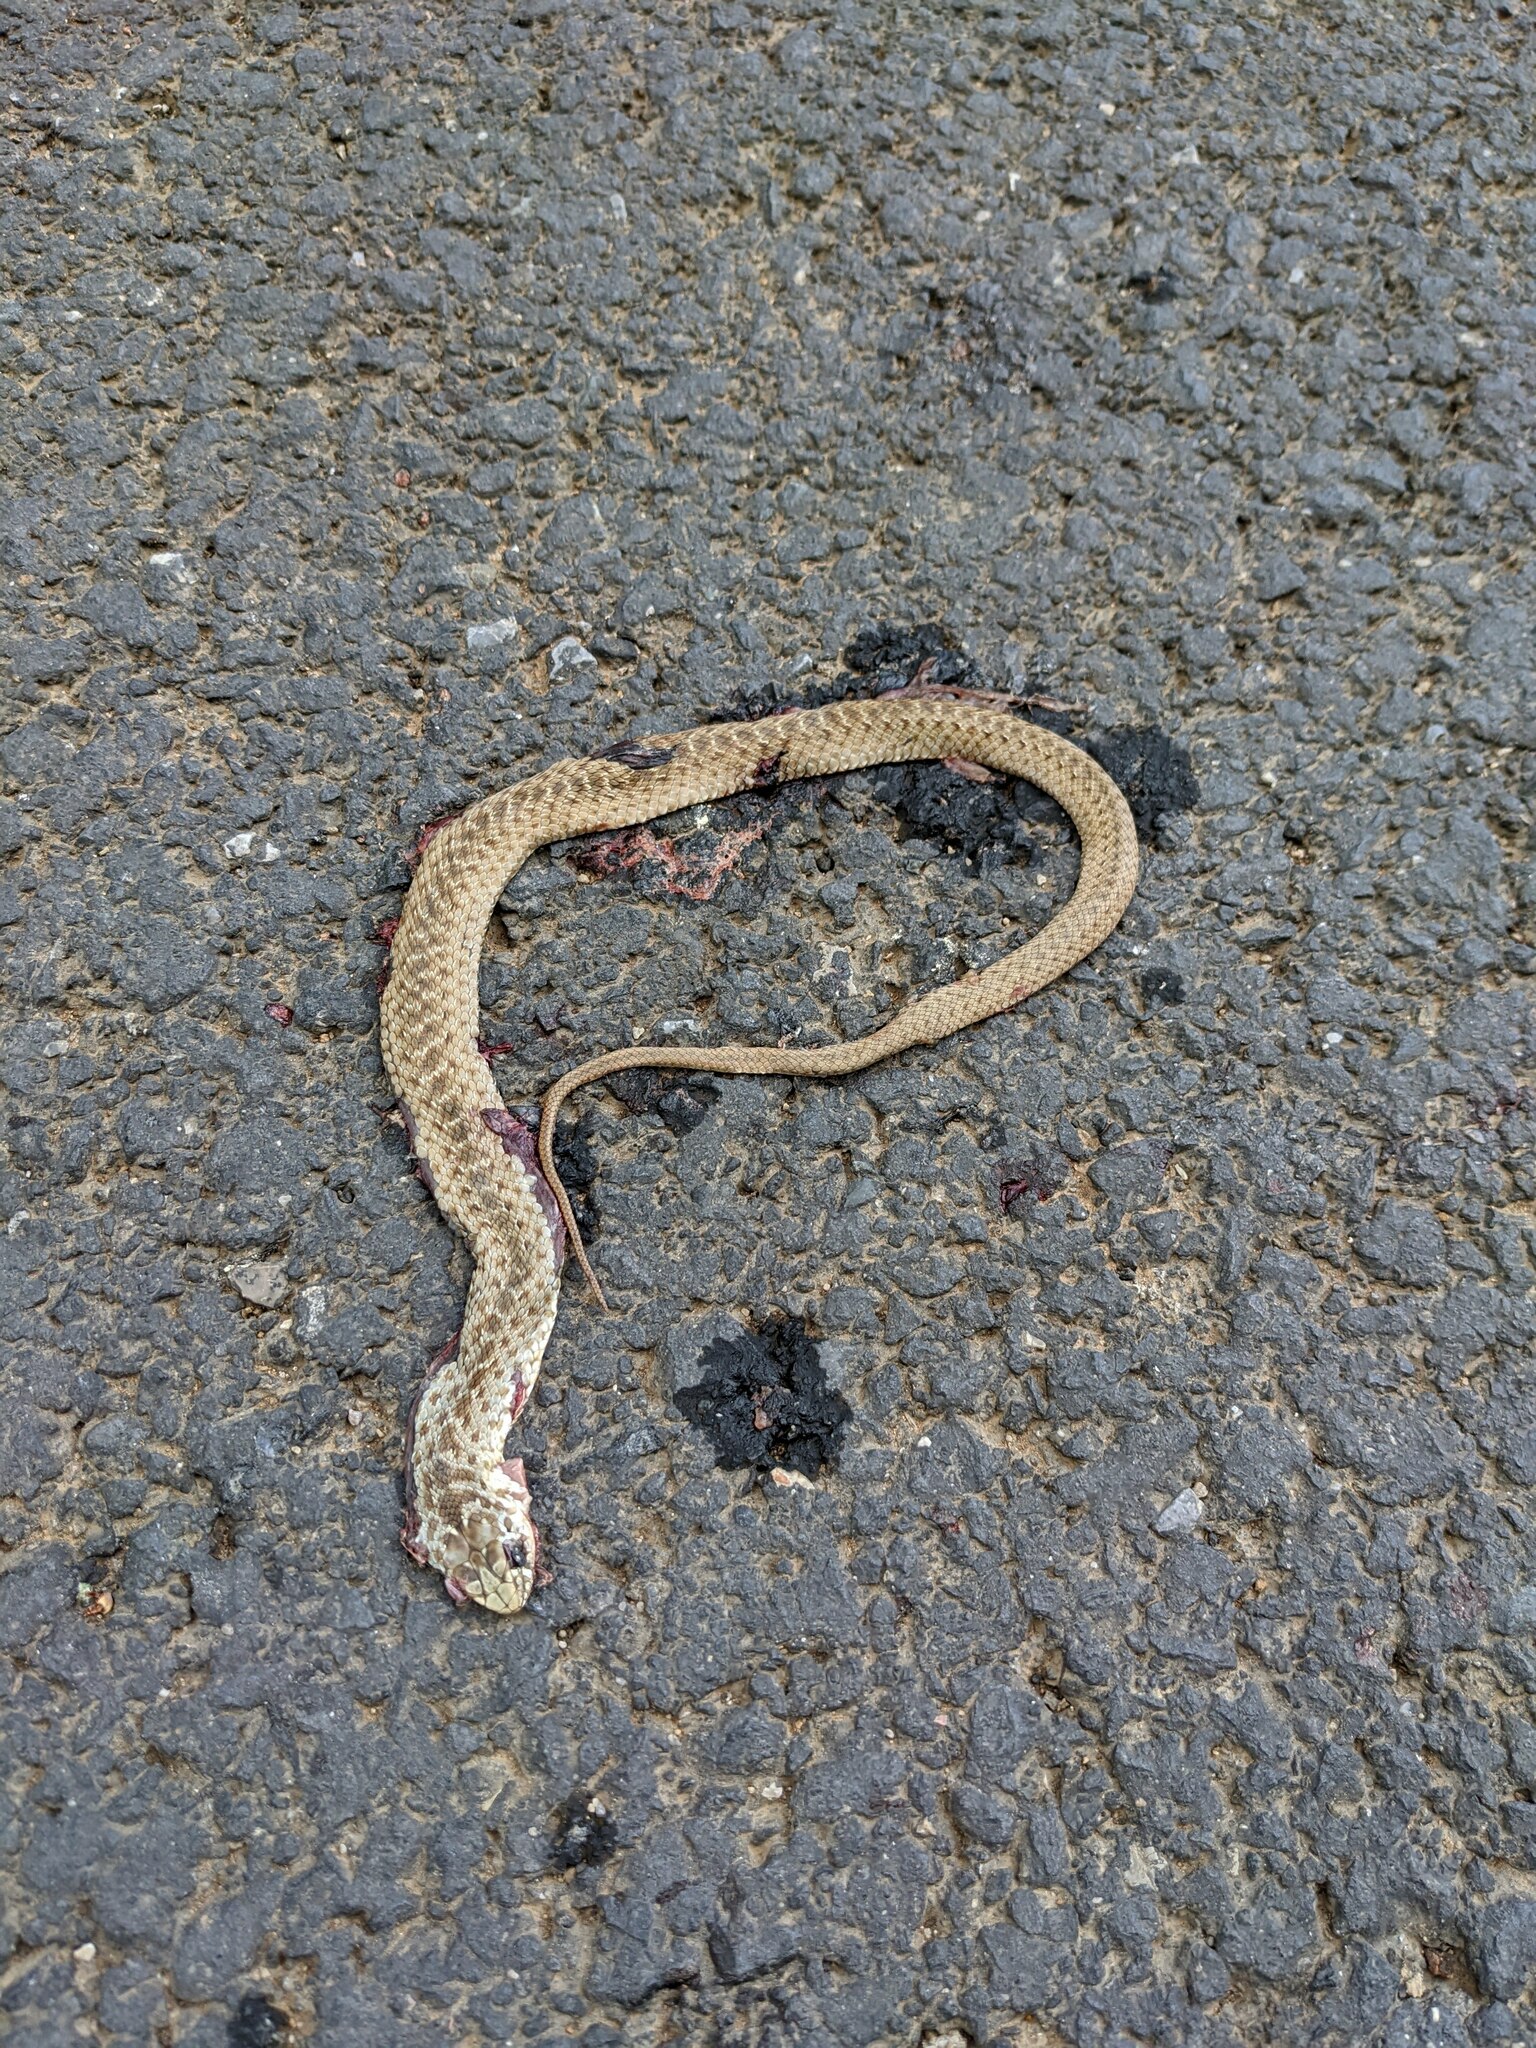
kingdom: Animalia
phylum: Chordata
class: Squamata
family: Psammophiidae
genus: Malpolon
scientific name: Malpolon monspessulanus
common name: Montpellier snake
